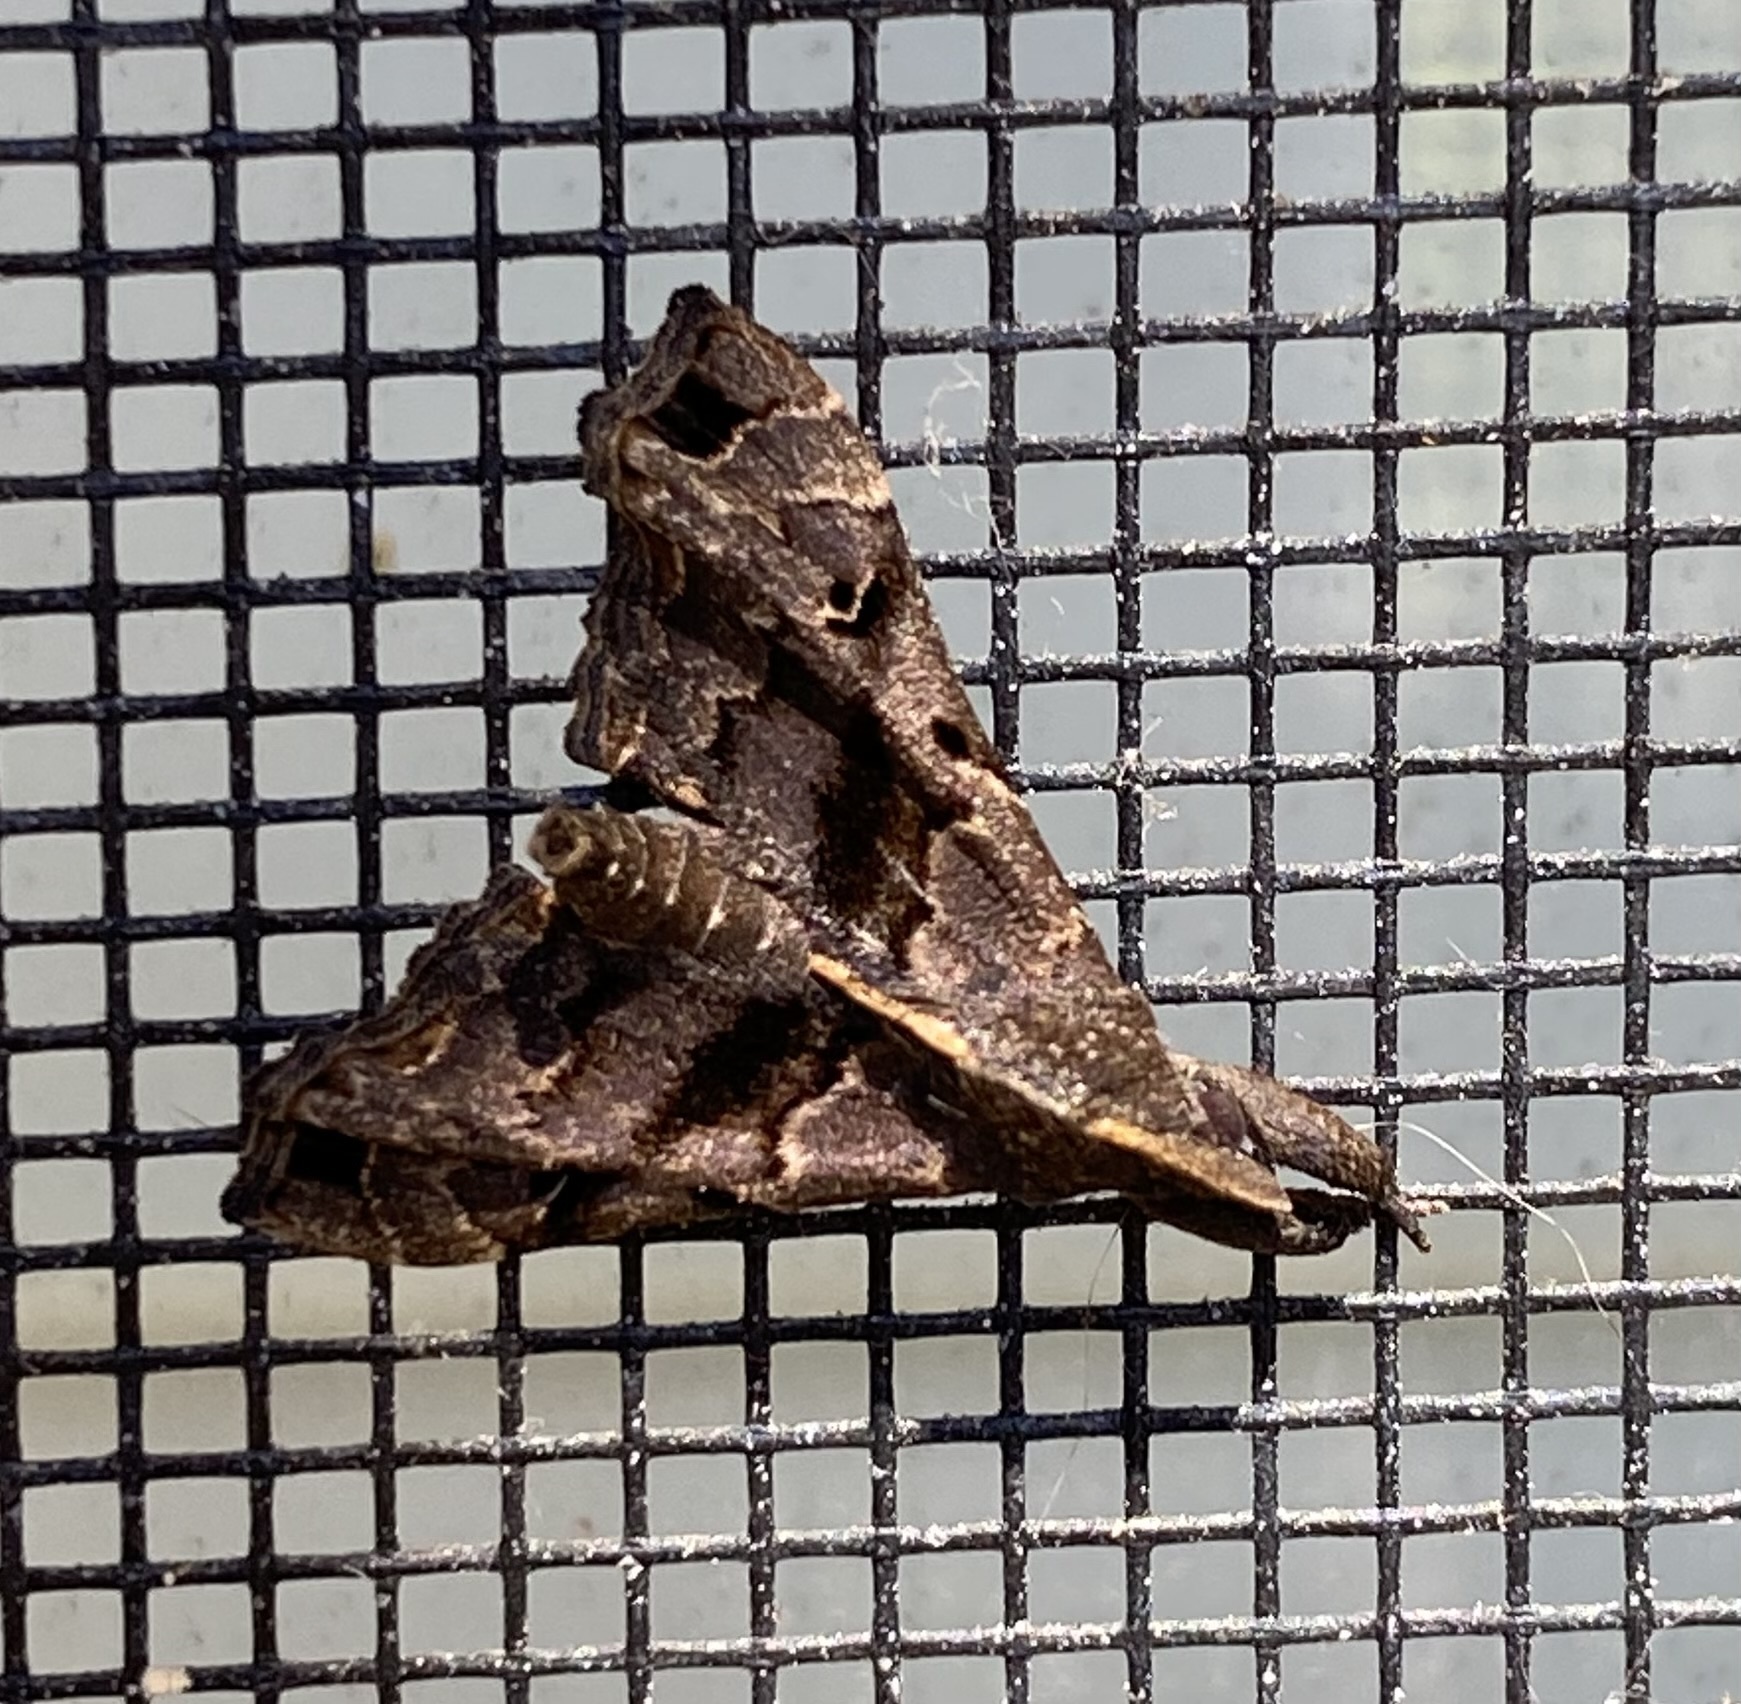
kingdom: Animalia
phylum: Arthropoda
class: Insecta
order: Lepidoptera
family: Erebidae
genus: Palthis
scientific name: Palthis asopialis
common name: Faint-spotted palthis moth
